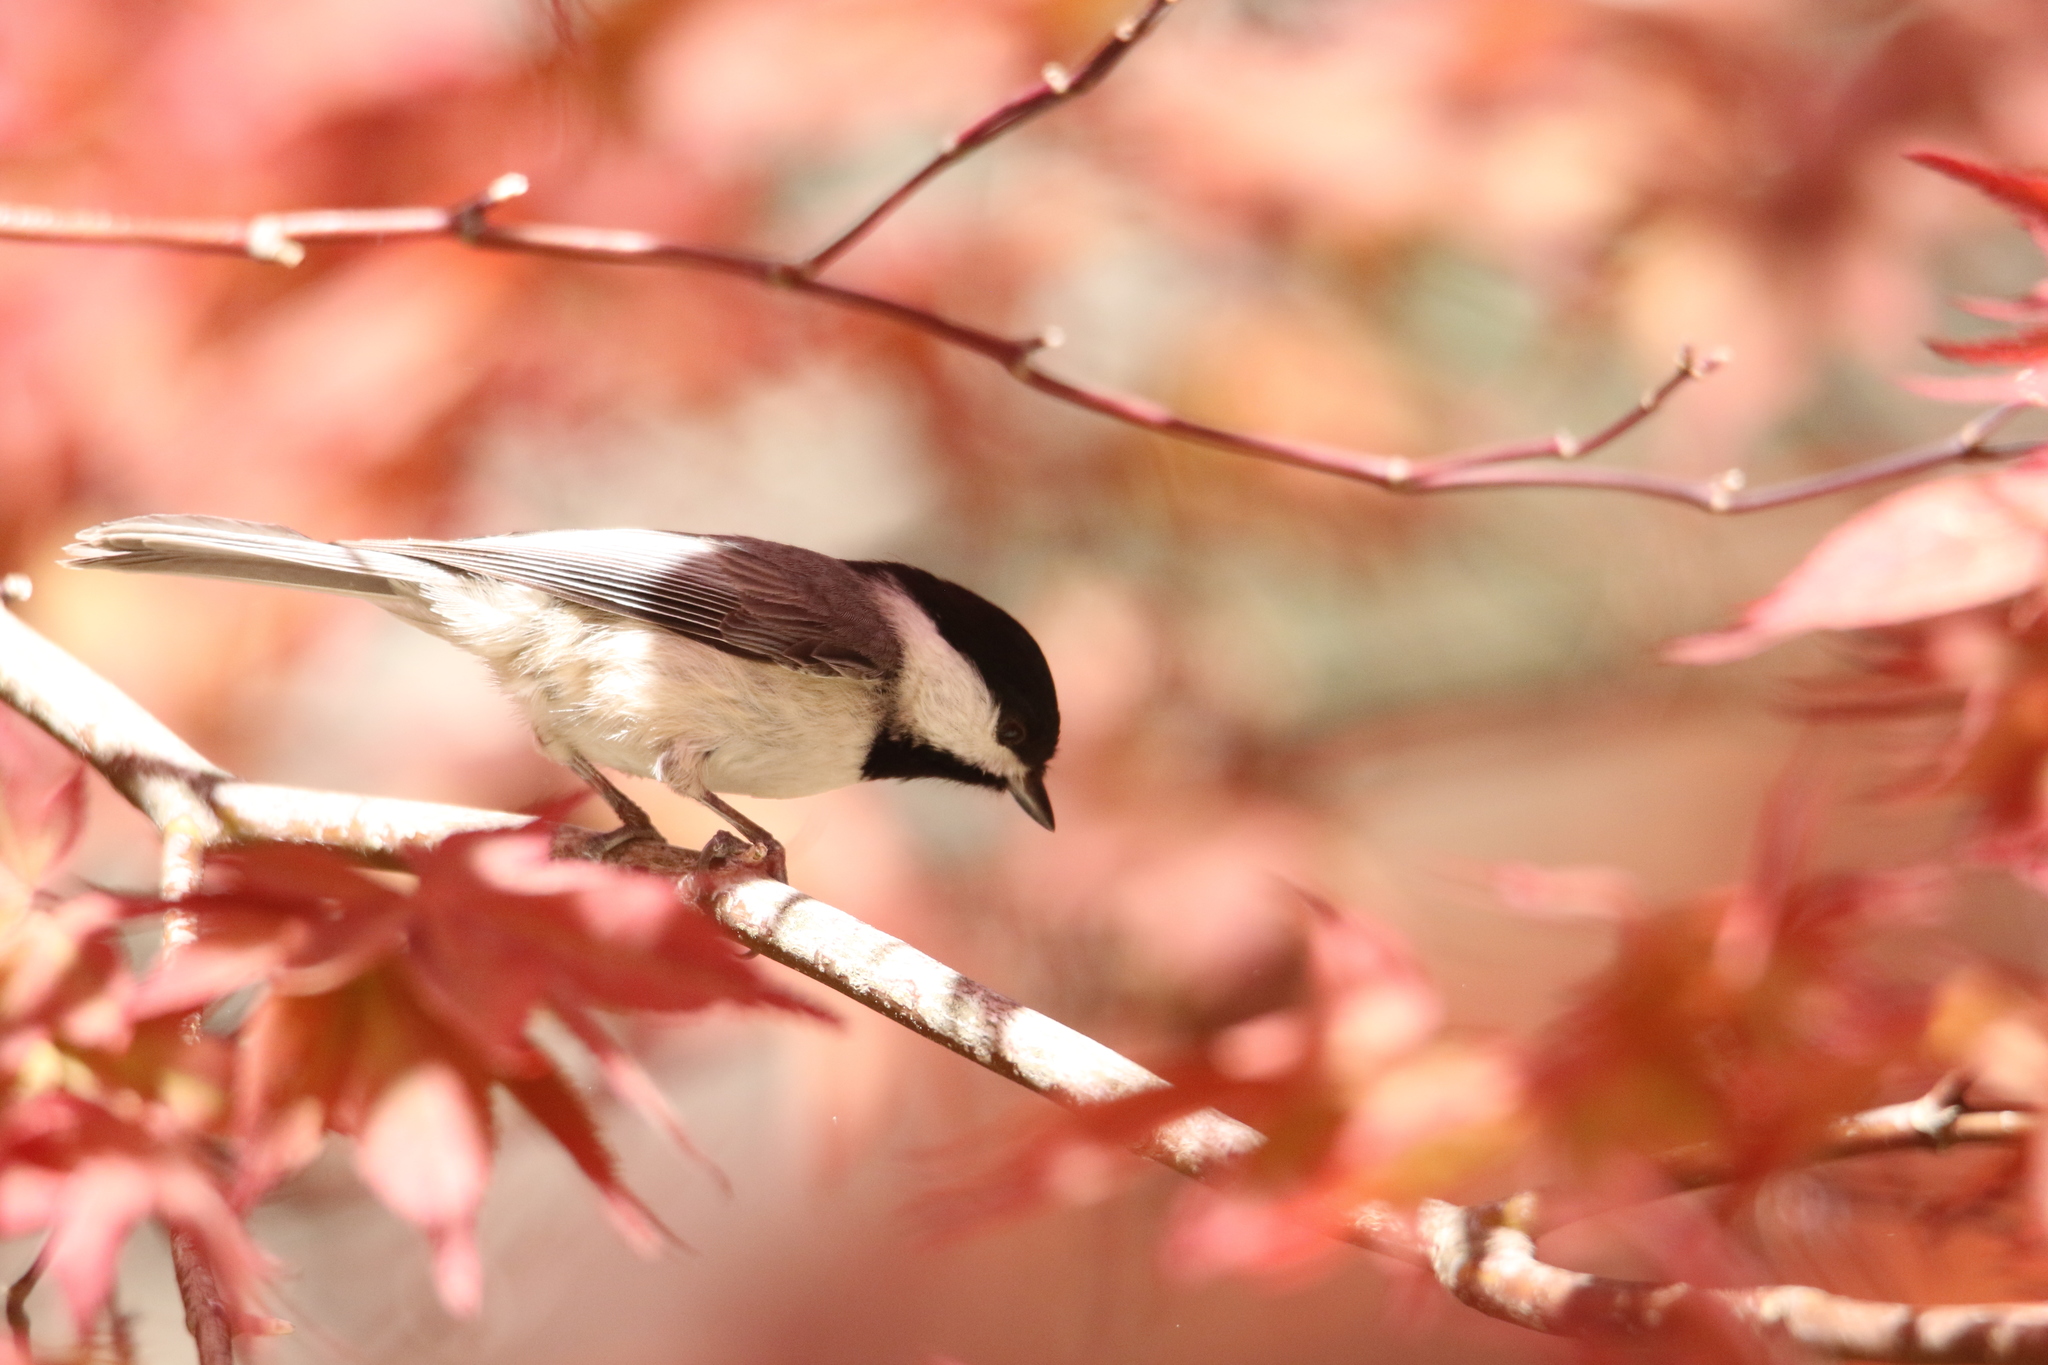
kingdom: Animalia
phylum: Chordata
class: Aves
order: Passeriformes
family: Paridae
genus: Poecile
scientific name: Poecile carolinensis
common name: Carolina chickadee
